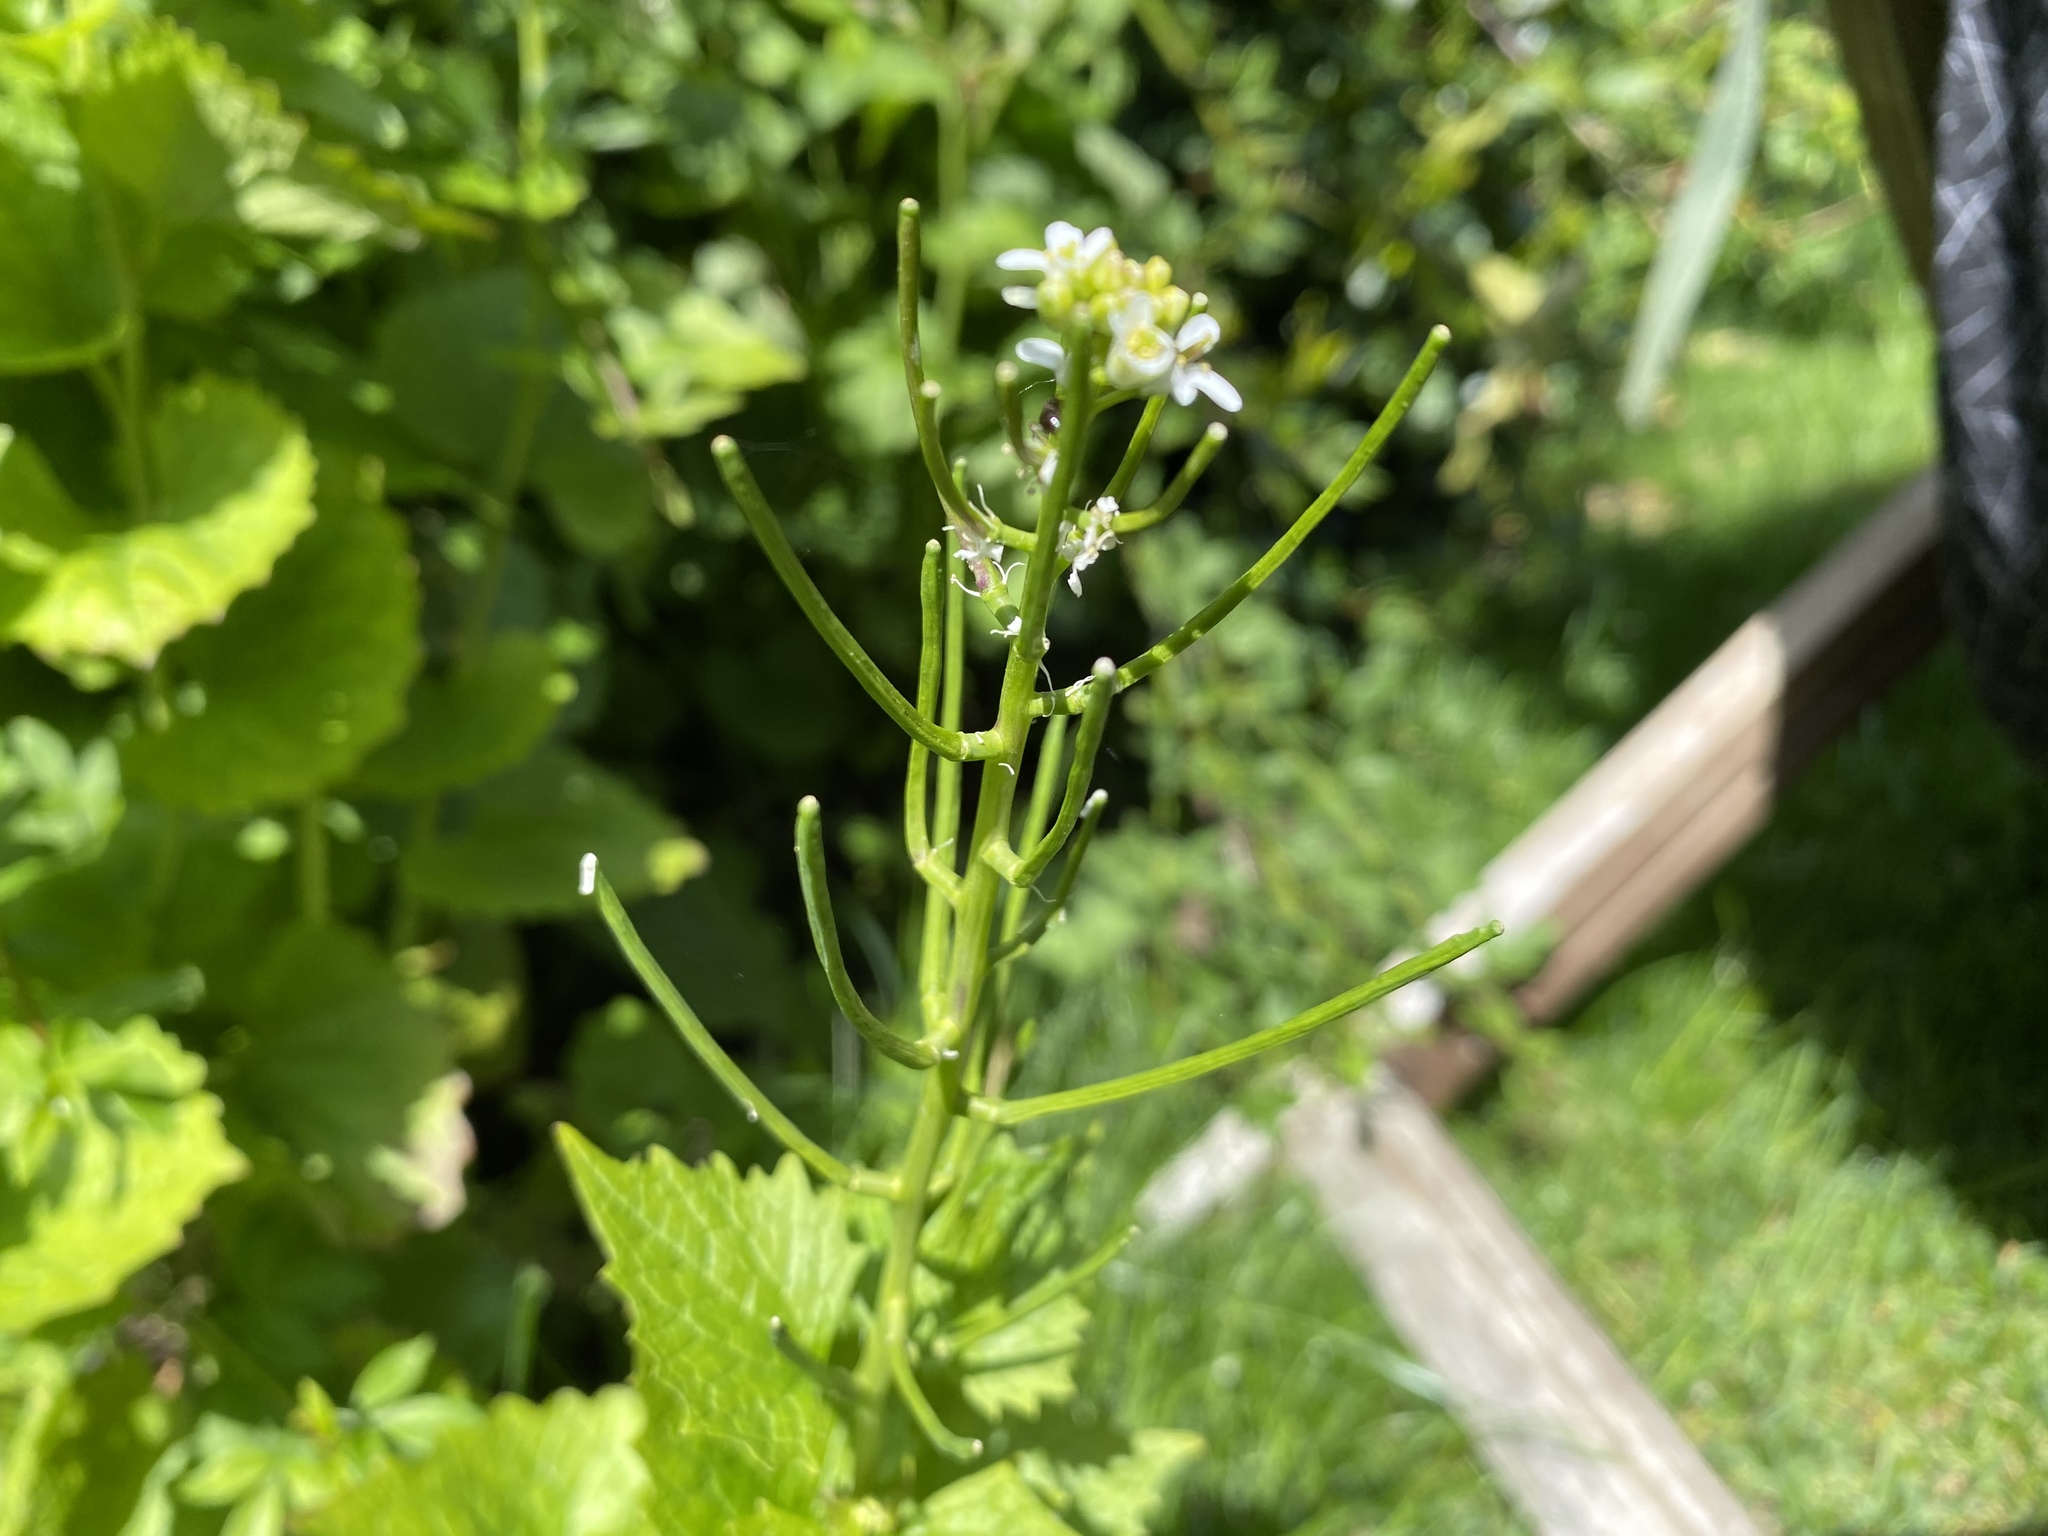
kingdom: Plantae
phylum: Tracheophyta
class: Magnoliopsida
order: Brassicales
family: Brassicaceae
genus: Alliaria
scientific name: Alliaria petiolata
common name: Garlic mustard
